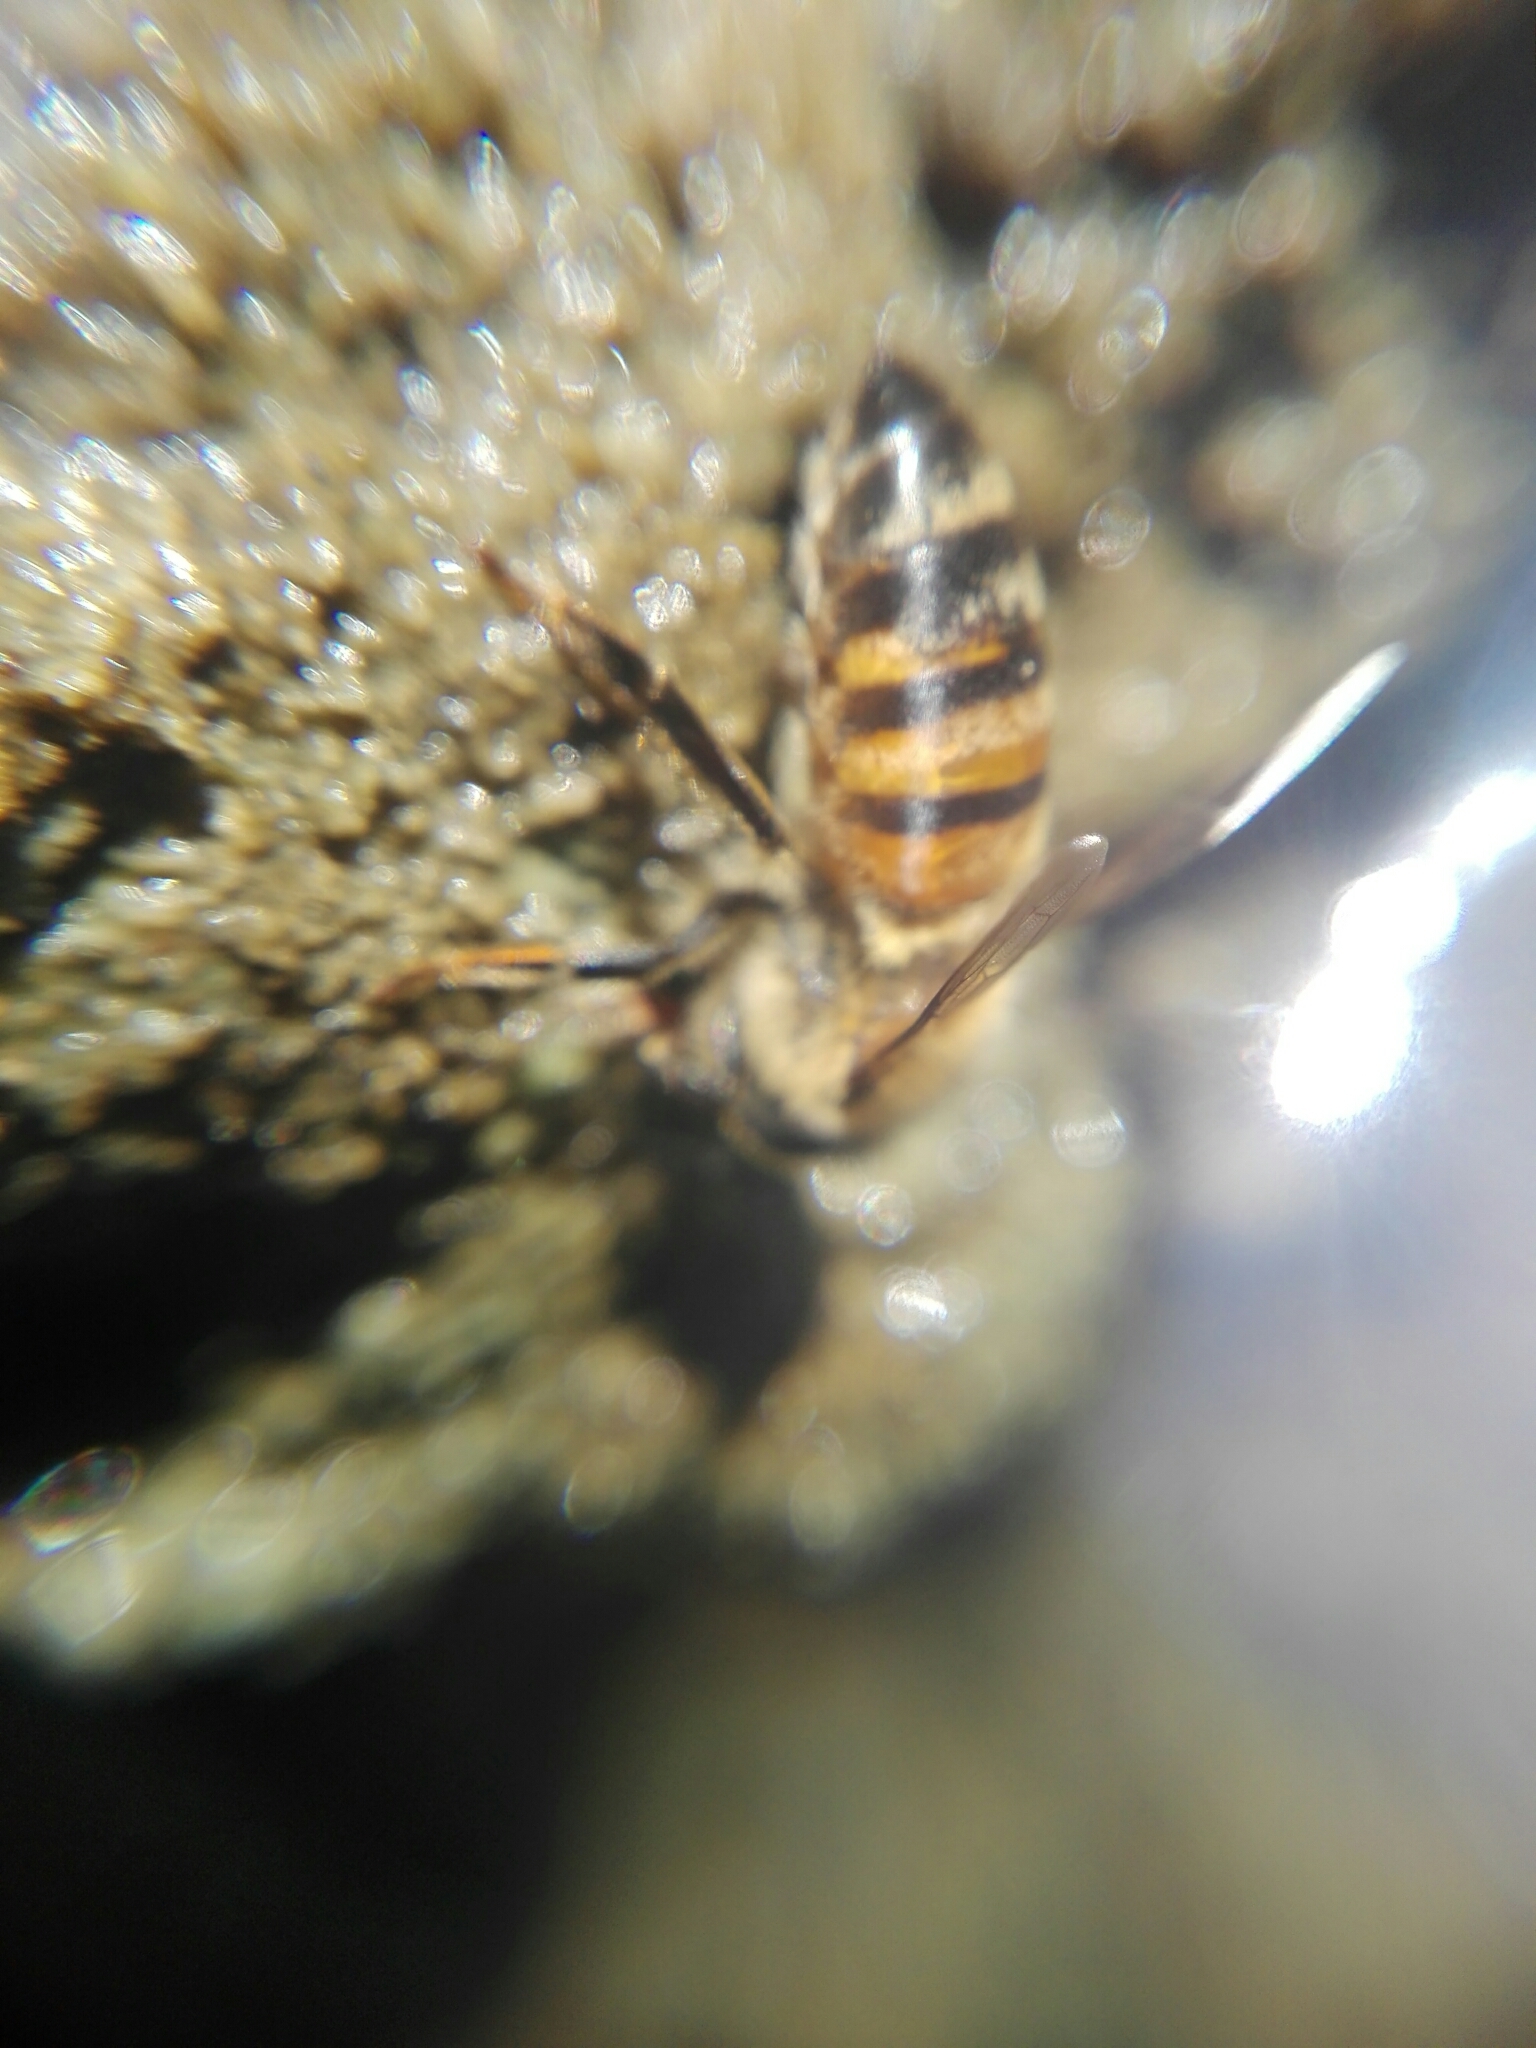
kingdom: Animalia
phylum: Arthropoda
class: Insecta
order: Hymenoptera
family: Apidae
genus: Apis
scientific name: Apis mellifera
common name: Honey bee
